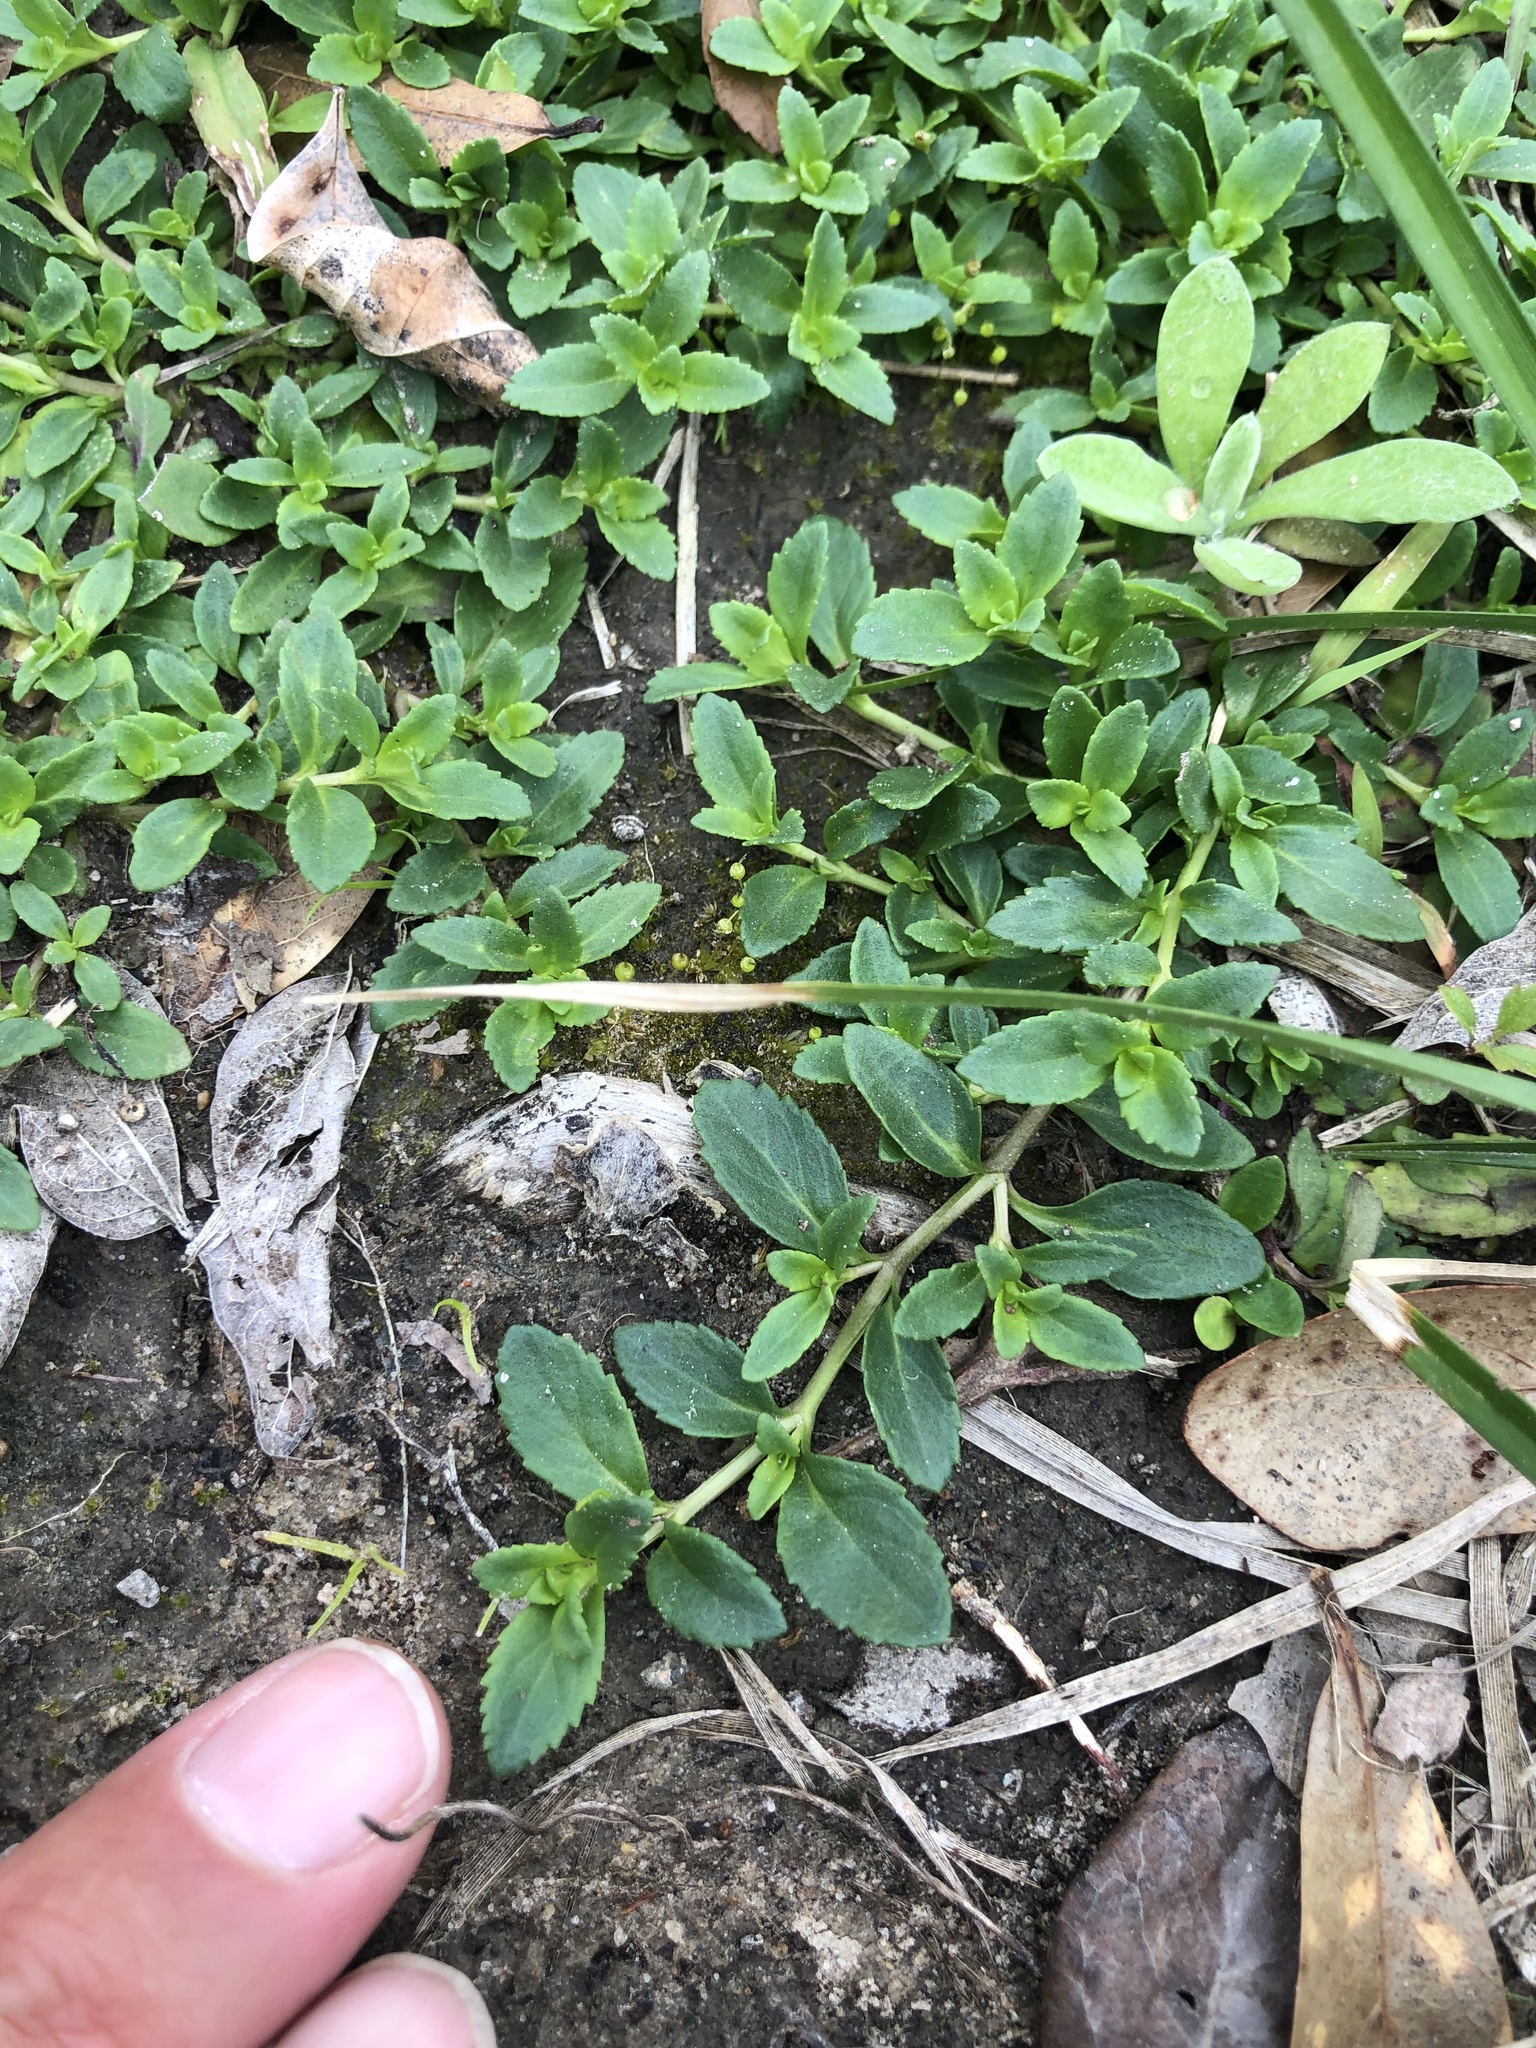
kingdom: Plantae
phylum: Tracheophyta
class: Magnoliopsida
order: Lamiales
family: Plantaginaceae
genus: Mecardonia
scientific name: Mecardonia procumbens
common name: Baby jump-up
